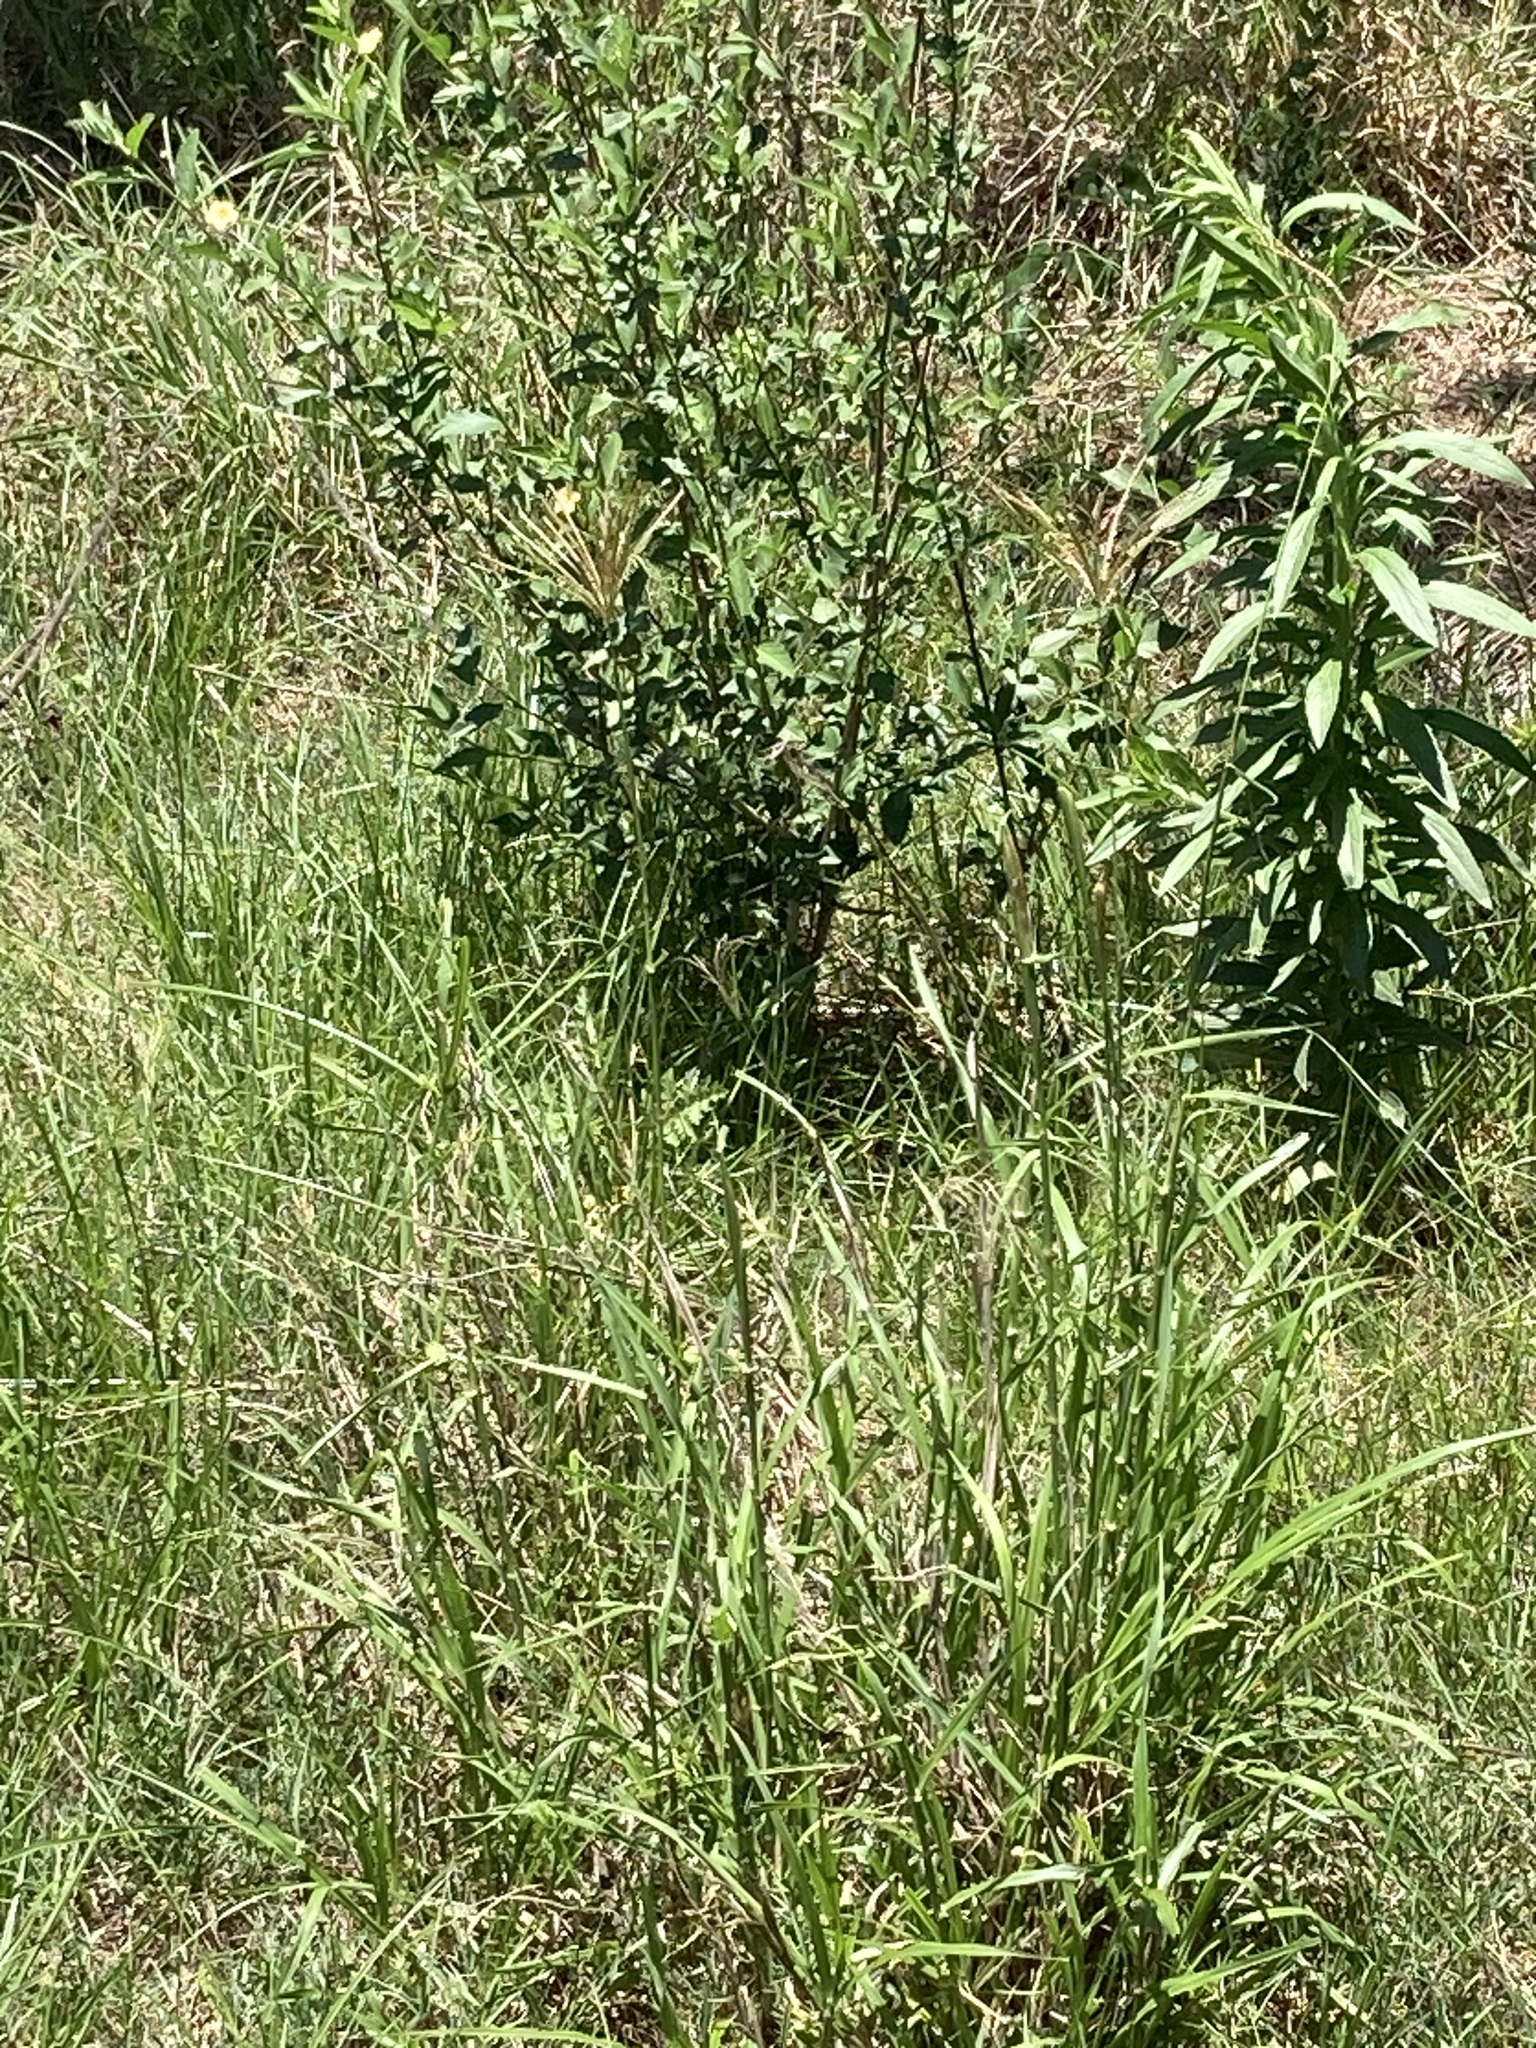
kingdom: Plantae
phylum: Tracheophyta
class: Liliopsida
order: Poales
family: Poaceae
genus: Chloris
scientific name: Chloris gayana
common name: Rhodes grass
